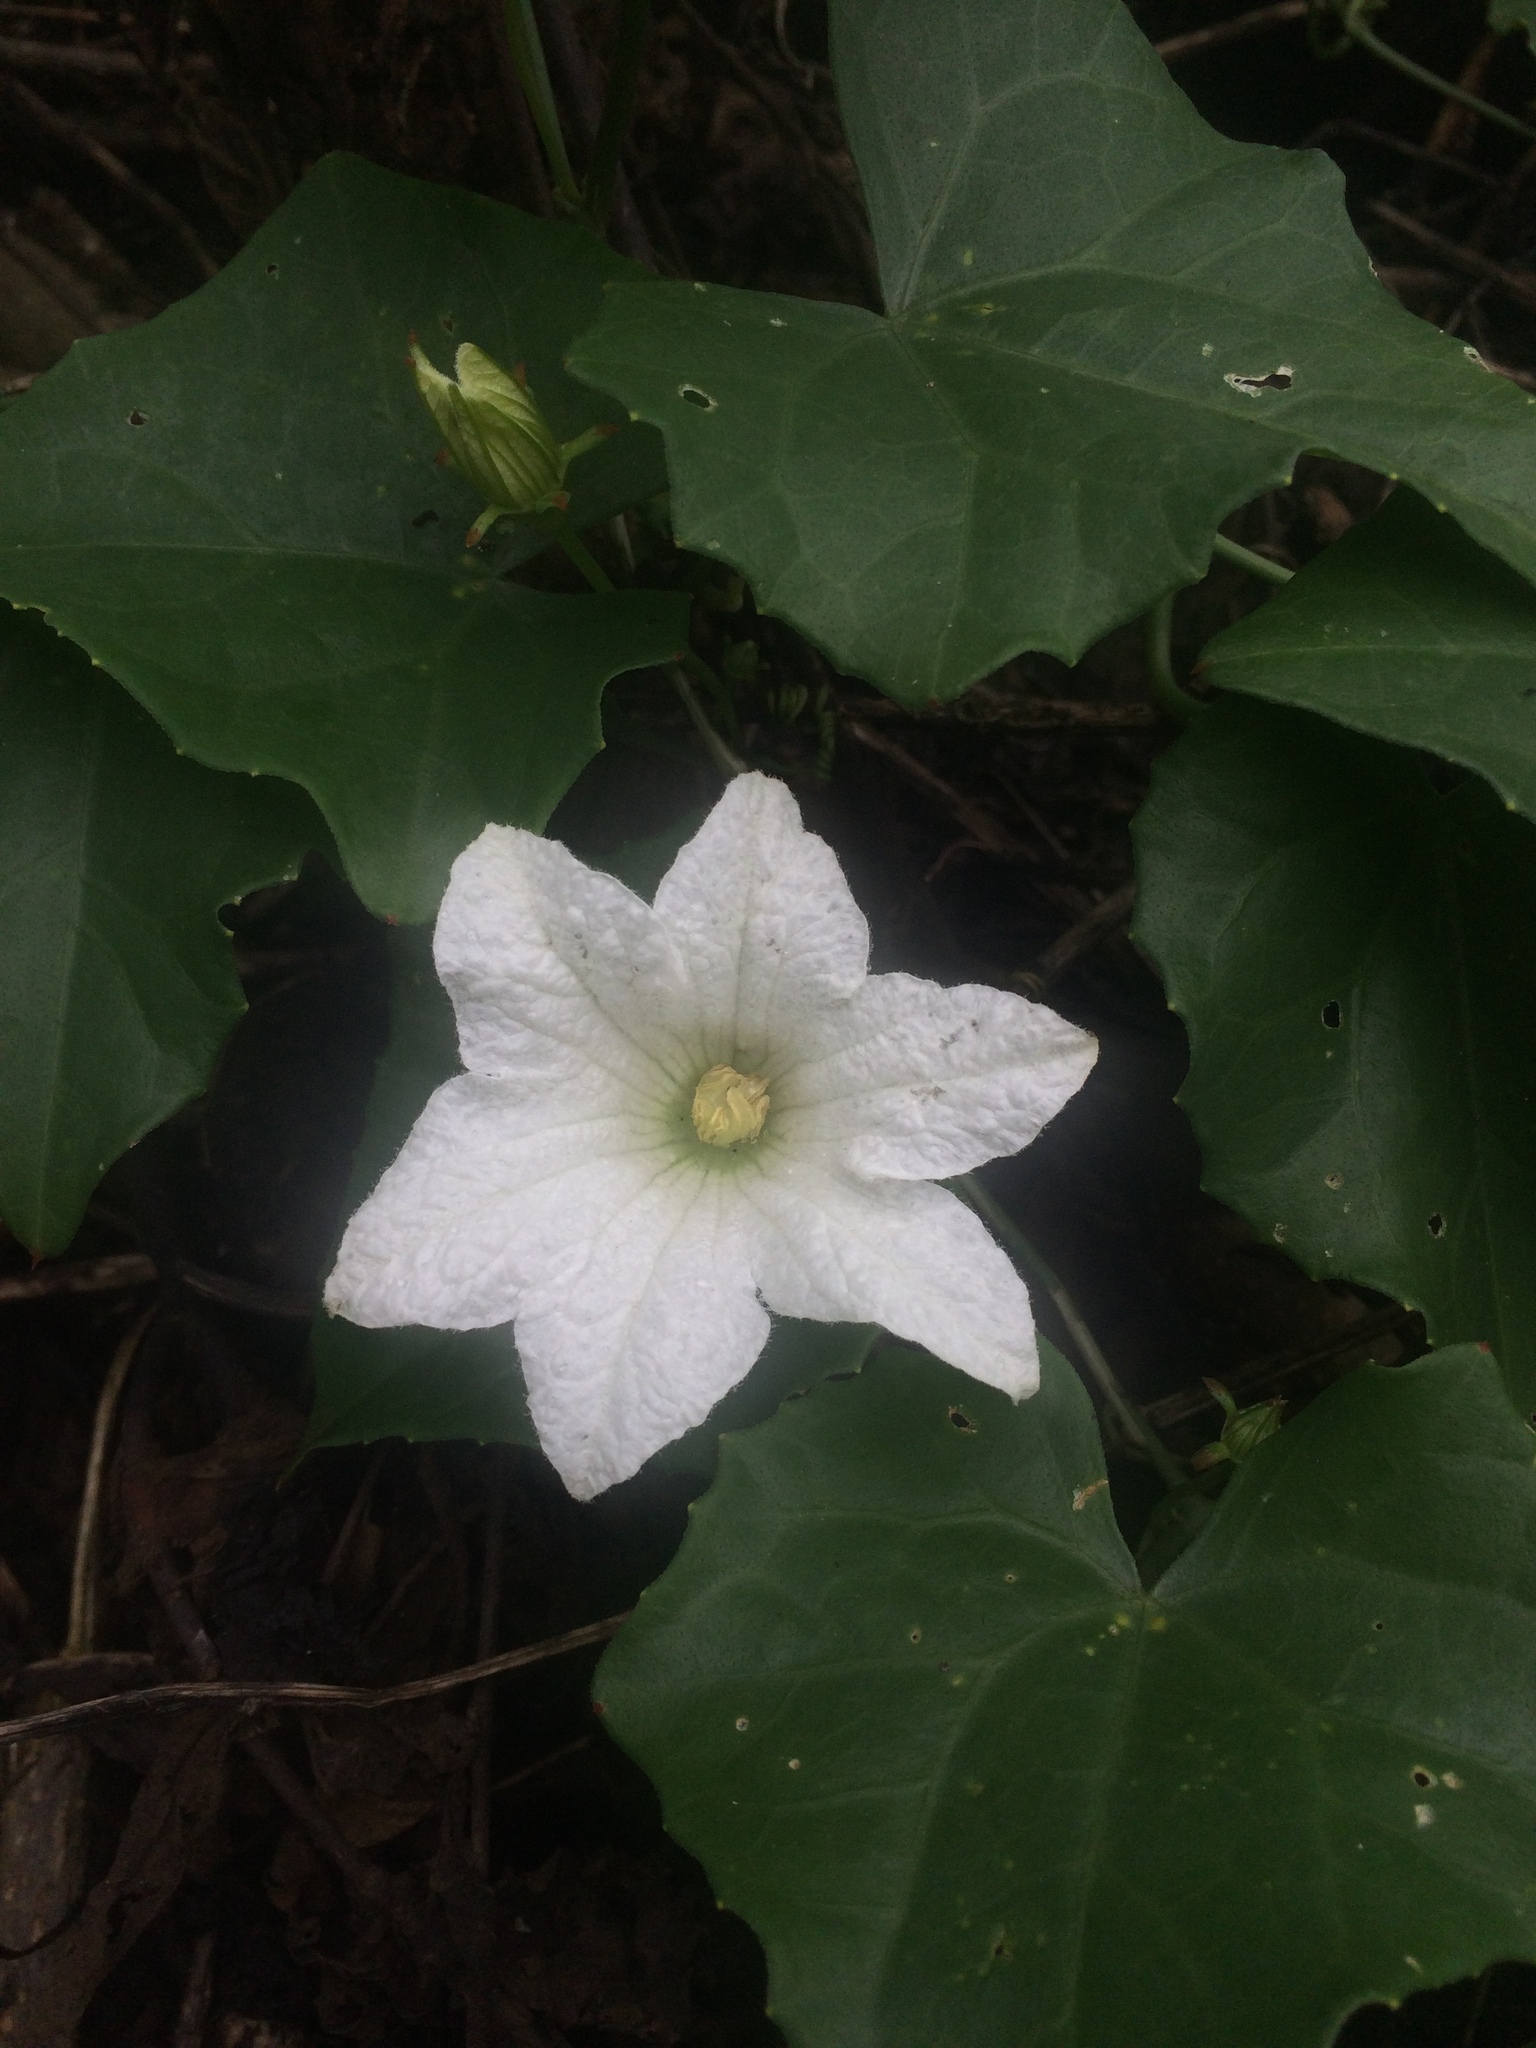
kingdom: Plantae
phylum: Tracheophyta
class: Magnoliopsida
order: Cucurbitales
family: Cucurbitaceae
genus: Coccinia
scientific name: Coccinia grandis
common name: Ivy gourd
